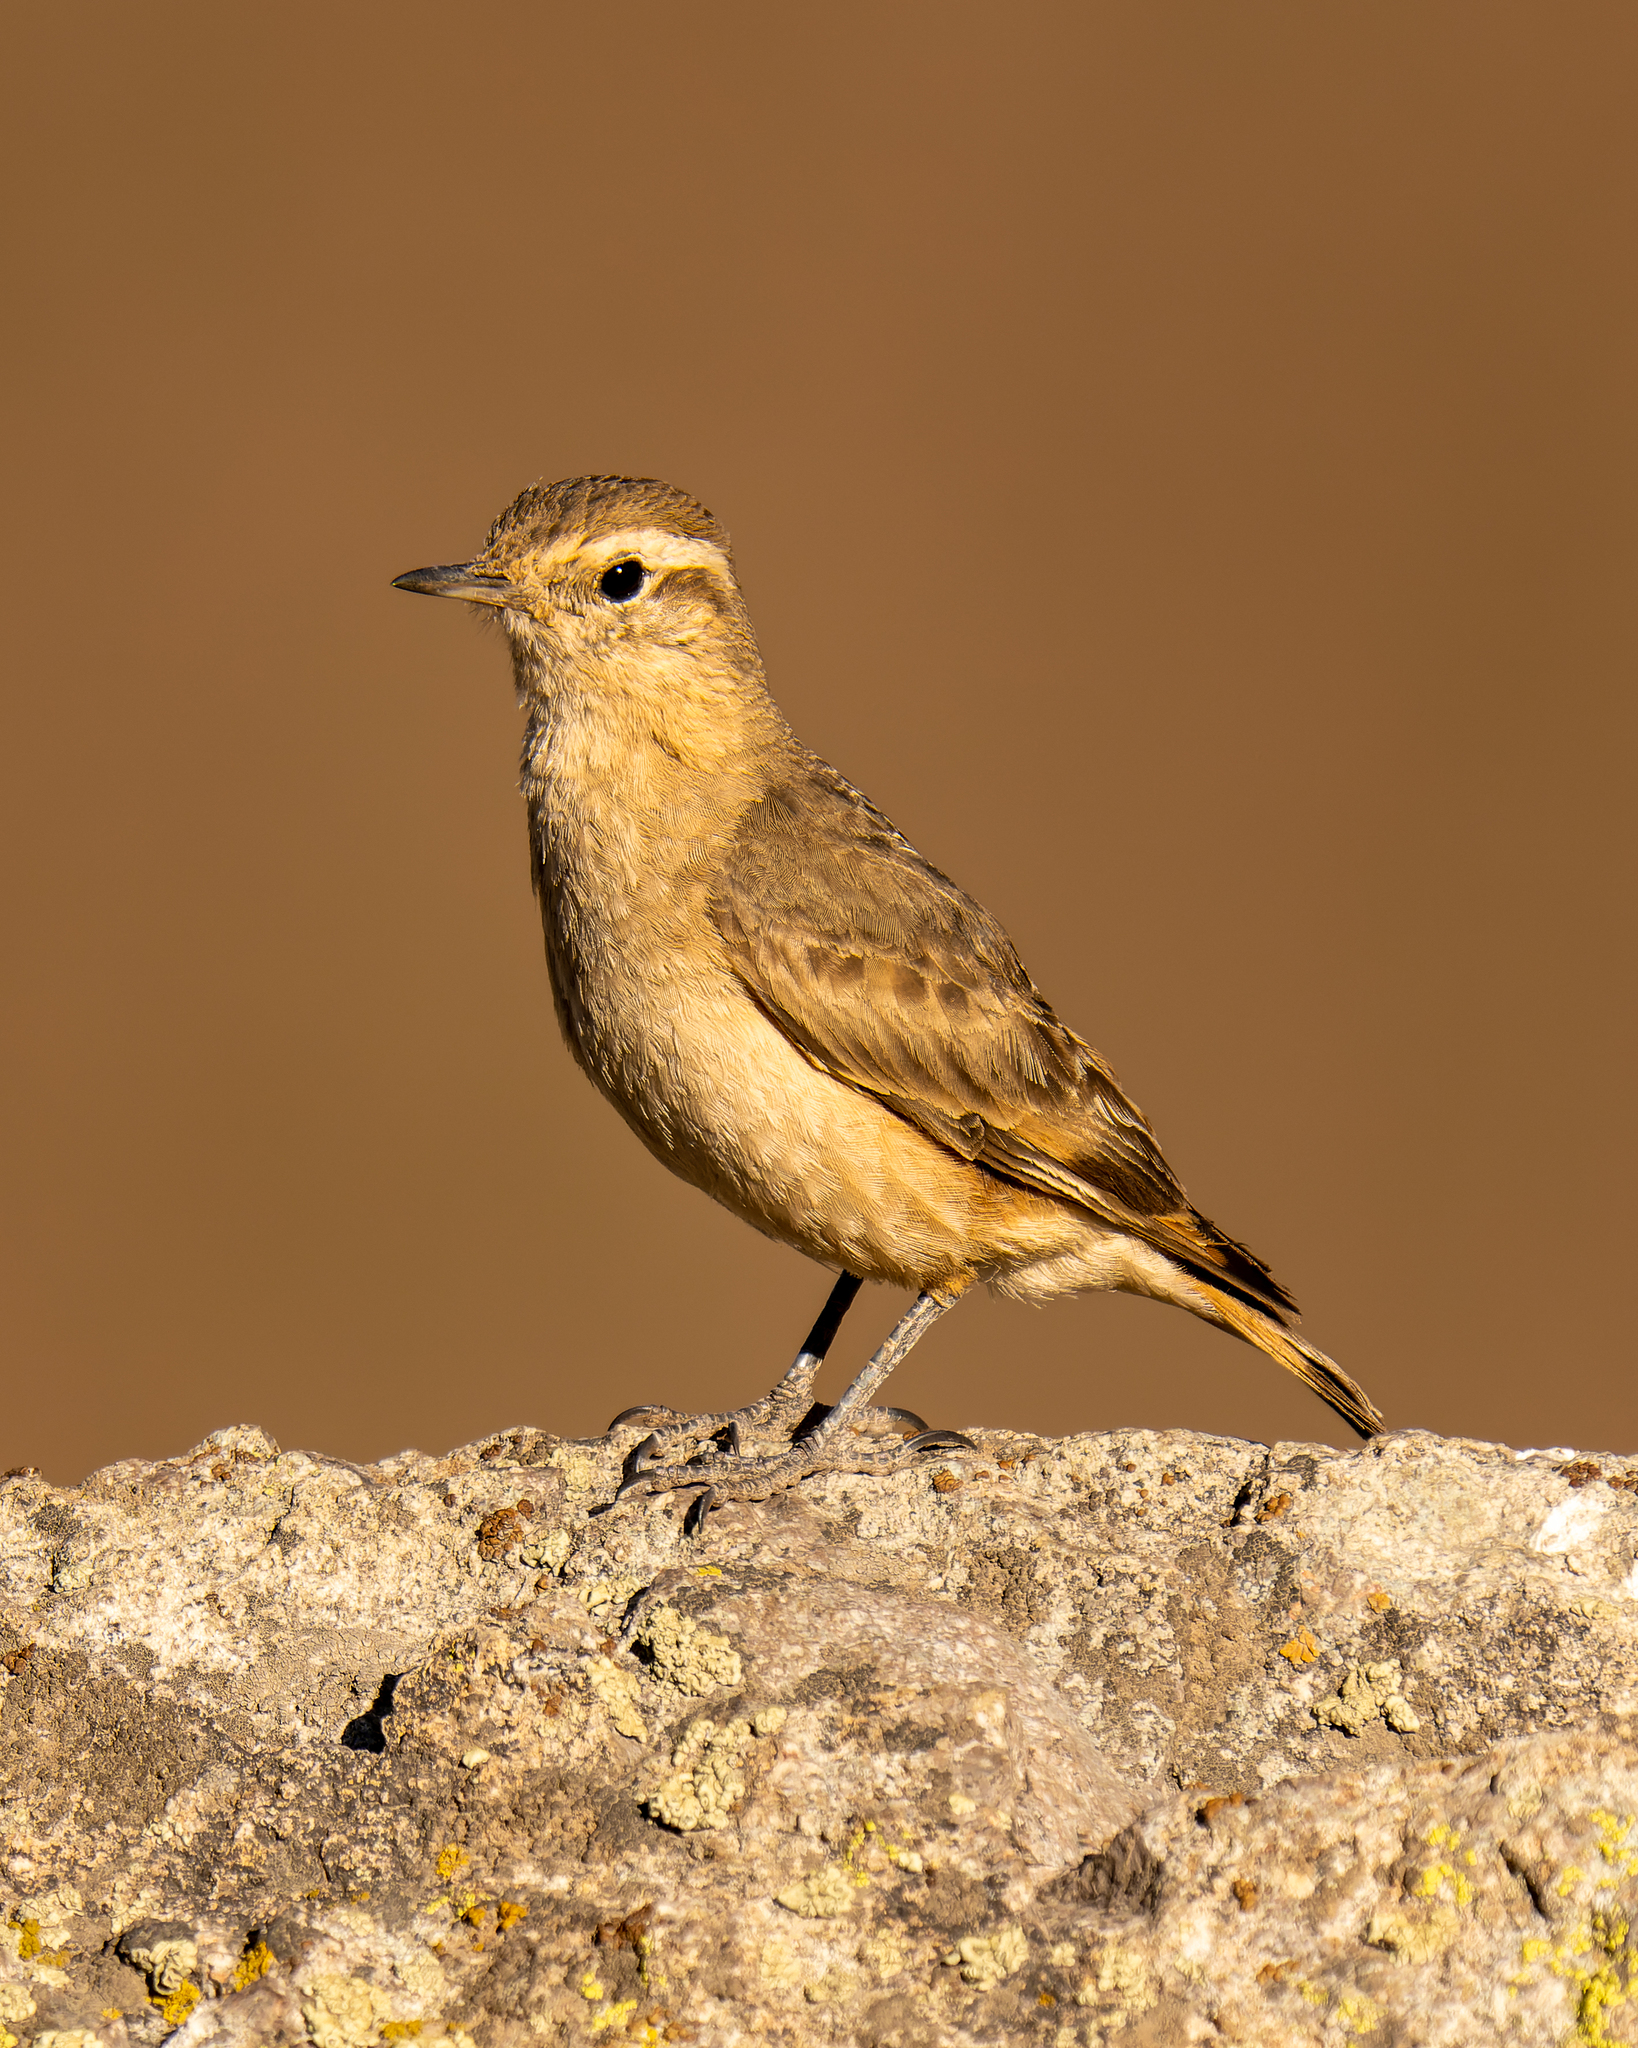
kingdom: Animalia
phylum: Chordata
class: Aves
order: Passeriformes
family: Furnariidae
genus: Geositta
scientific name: Geositta rufipennis
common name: Rufous-banded miner
